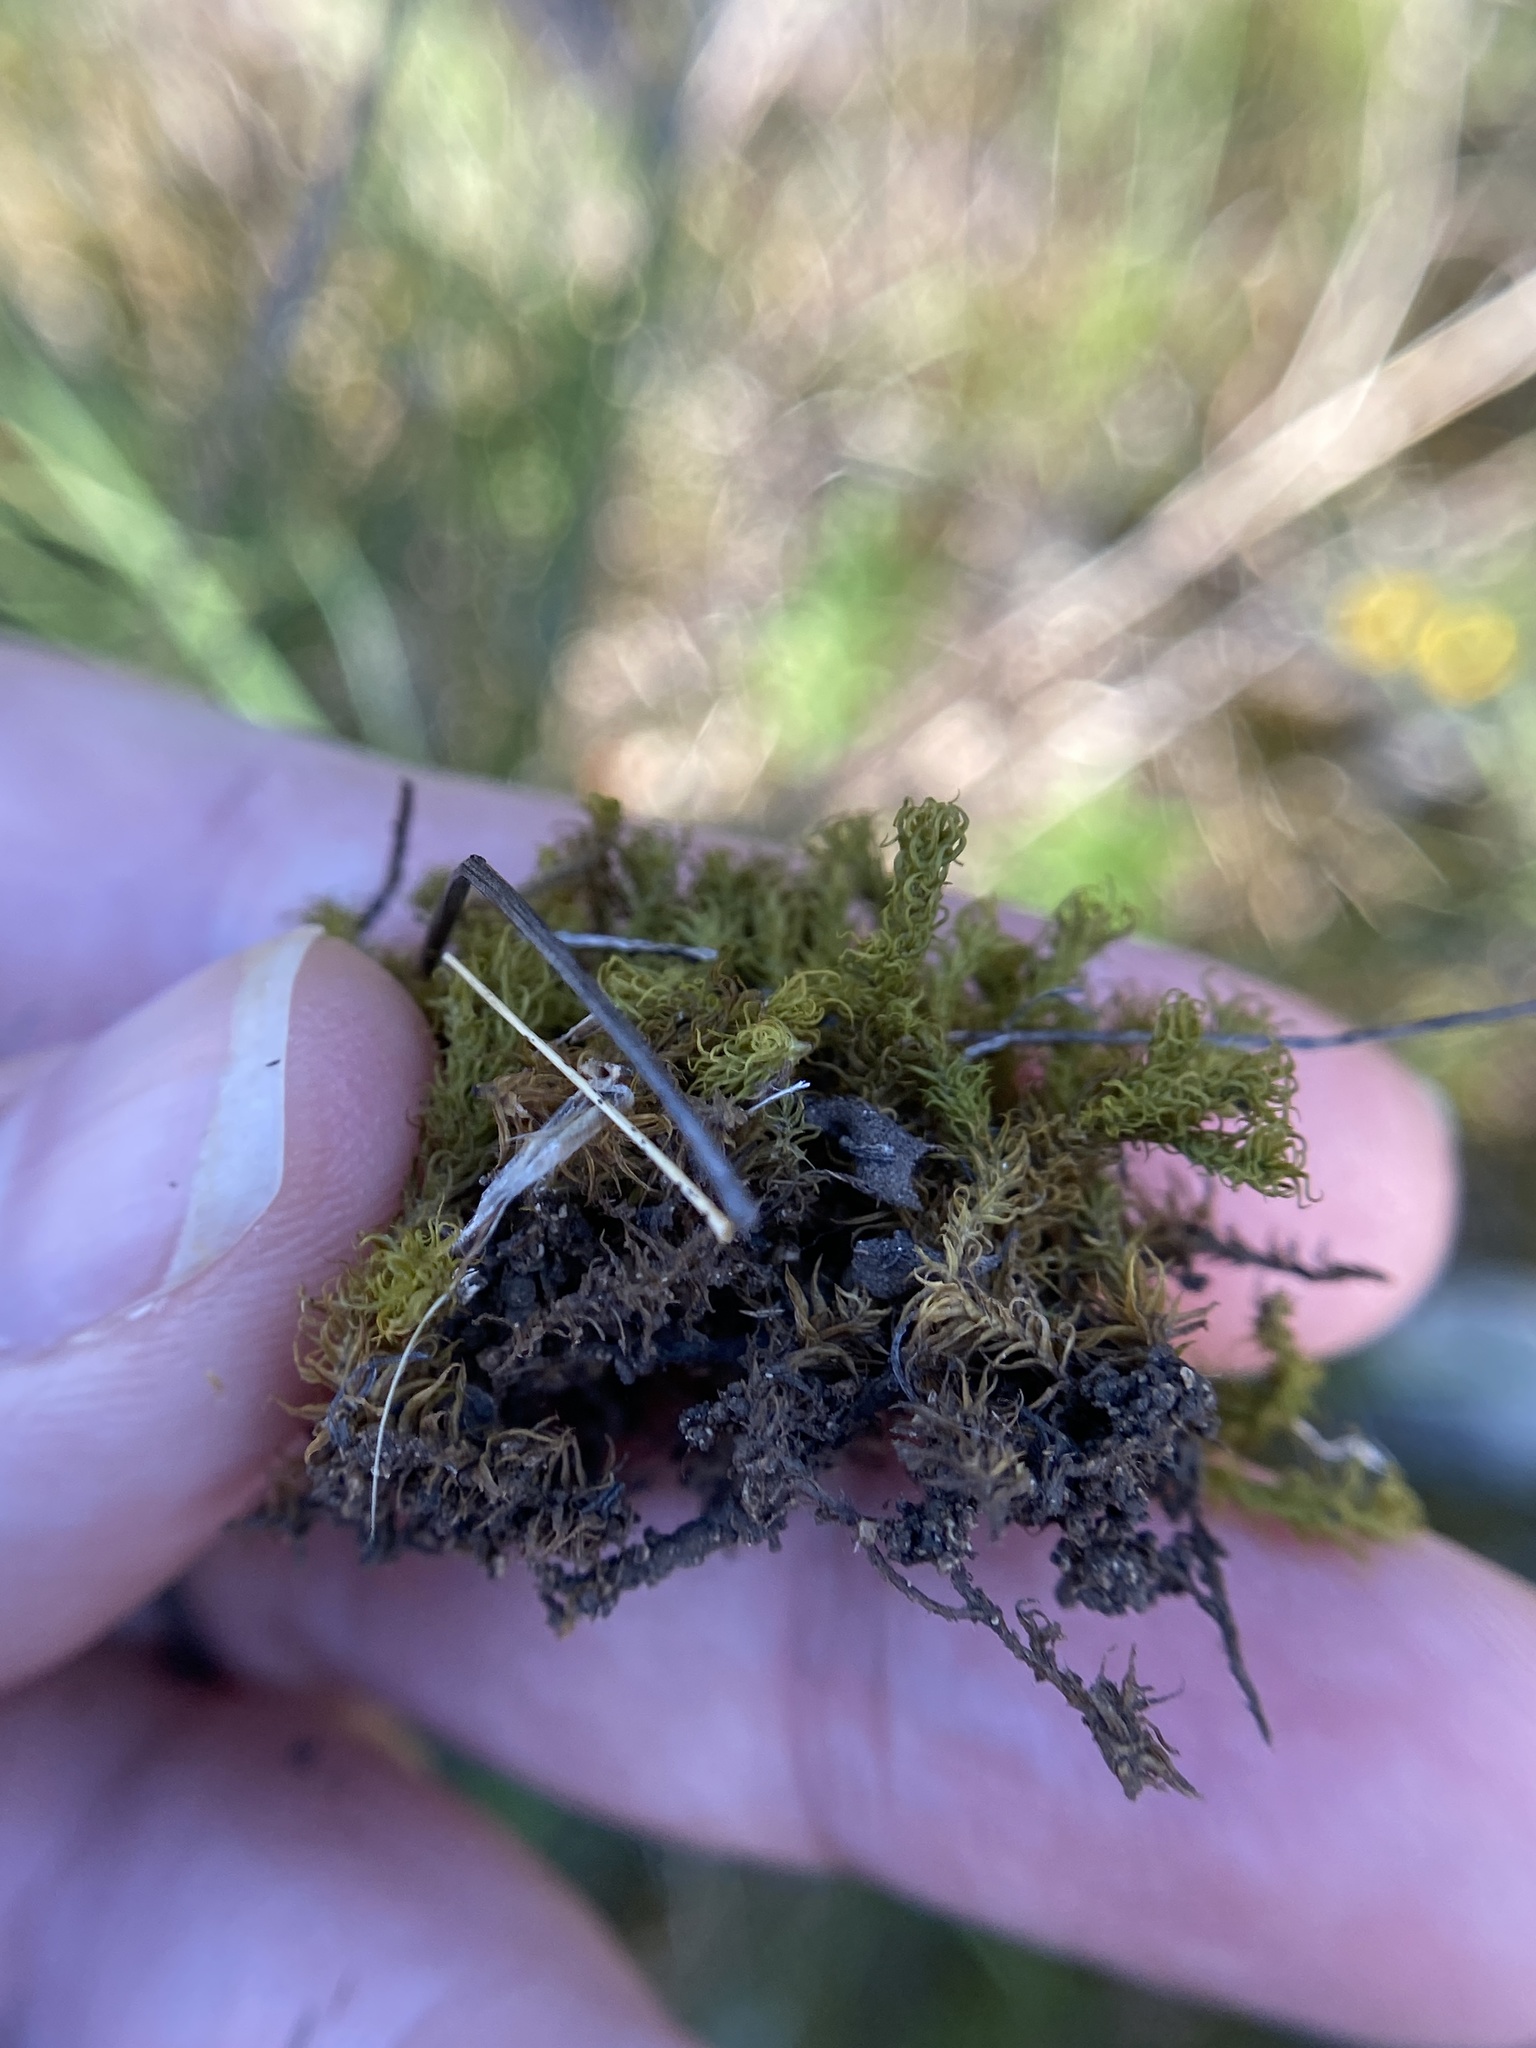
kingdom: Plantae
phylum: Bryophyta
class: Bryopsida
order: Pottiales
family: Pottiaceae
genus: Pleurochaete
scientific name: Pleurochaete luteola
